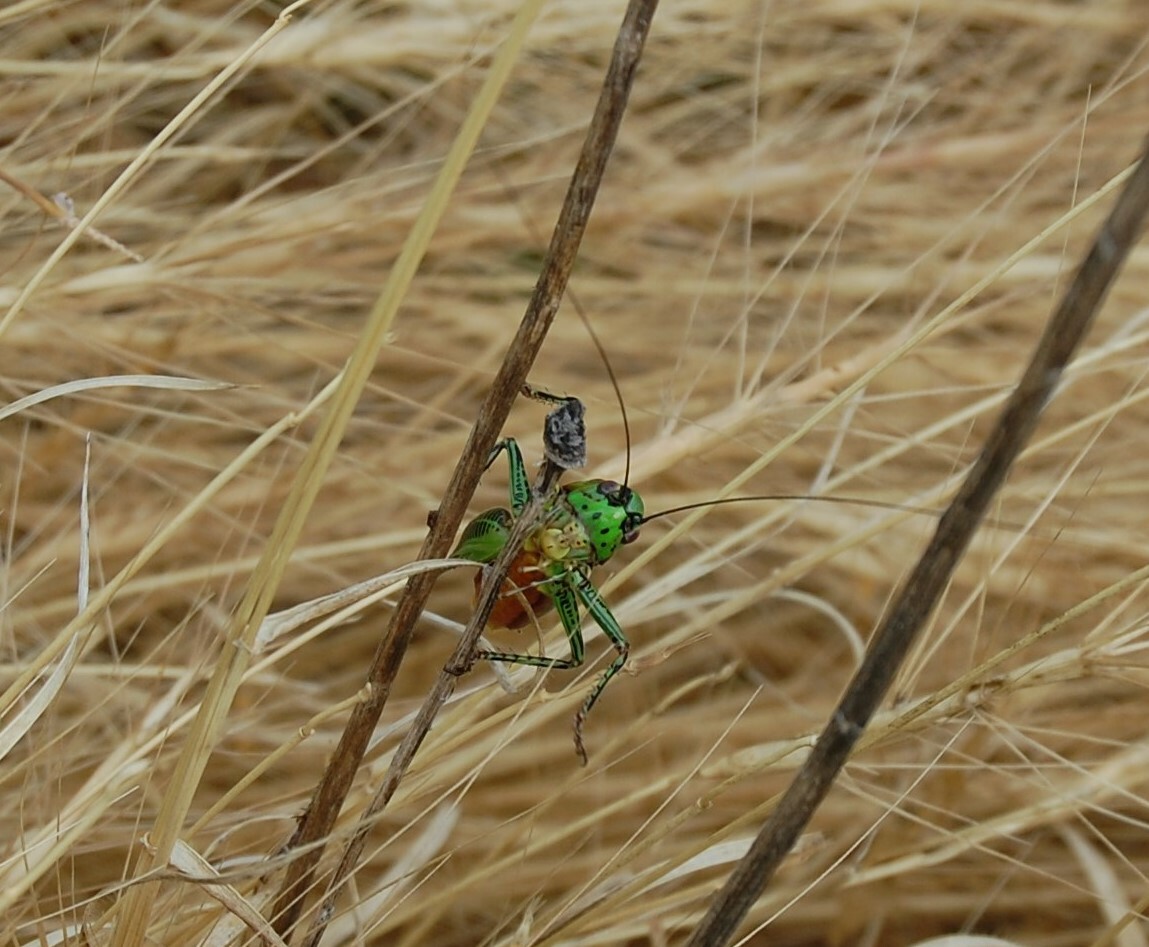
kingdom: Animalia
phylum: Arthropoda
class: Insecta
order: Orthoptera
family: Tettigoniidae
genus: Eupholidoptera
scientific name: Eupholidoptera garganica
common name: Gargano marbled bush-cricket
